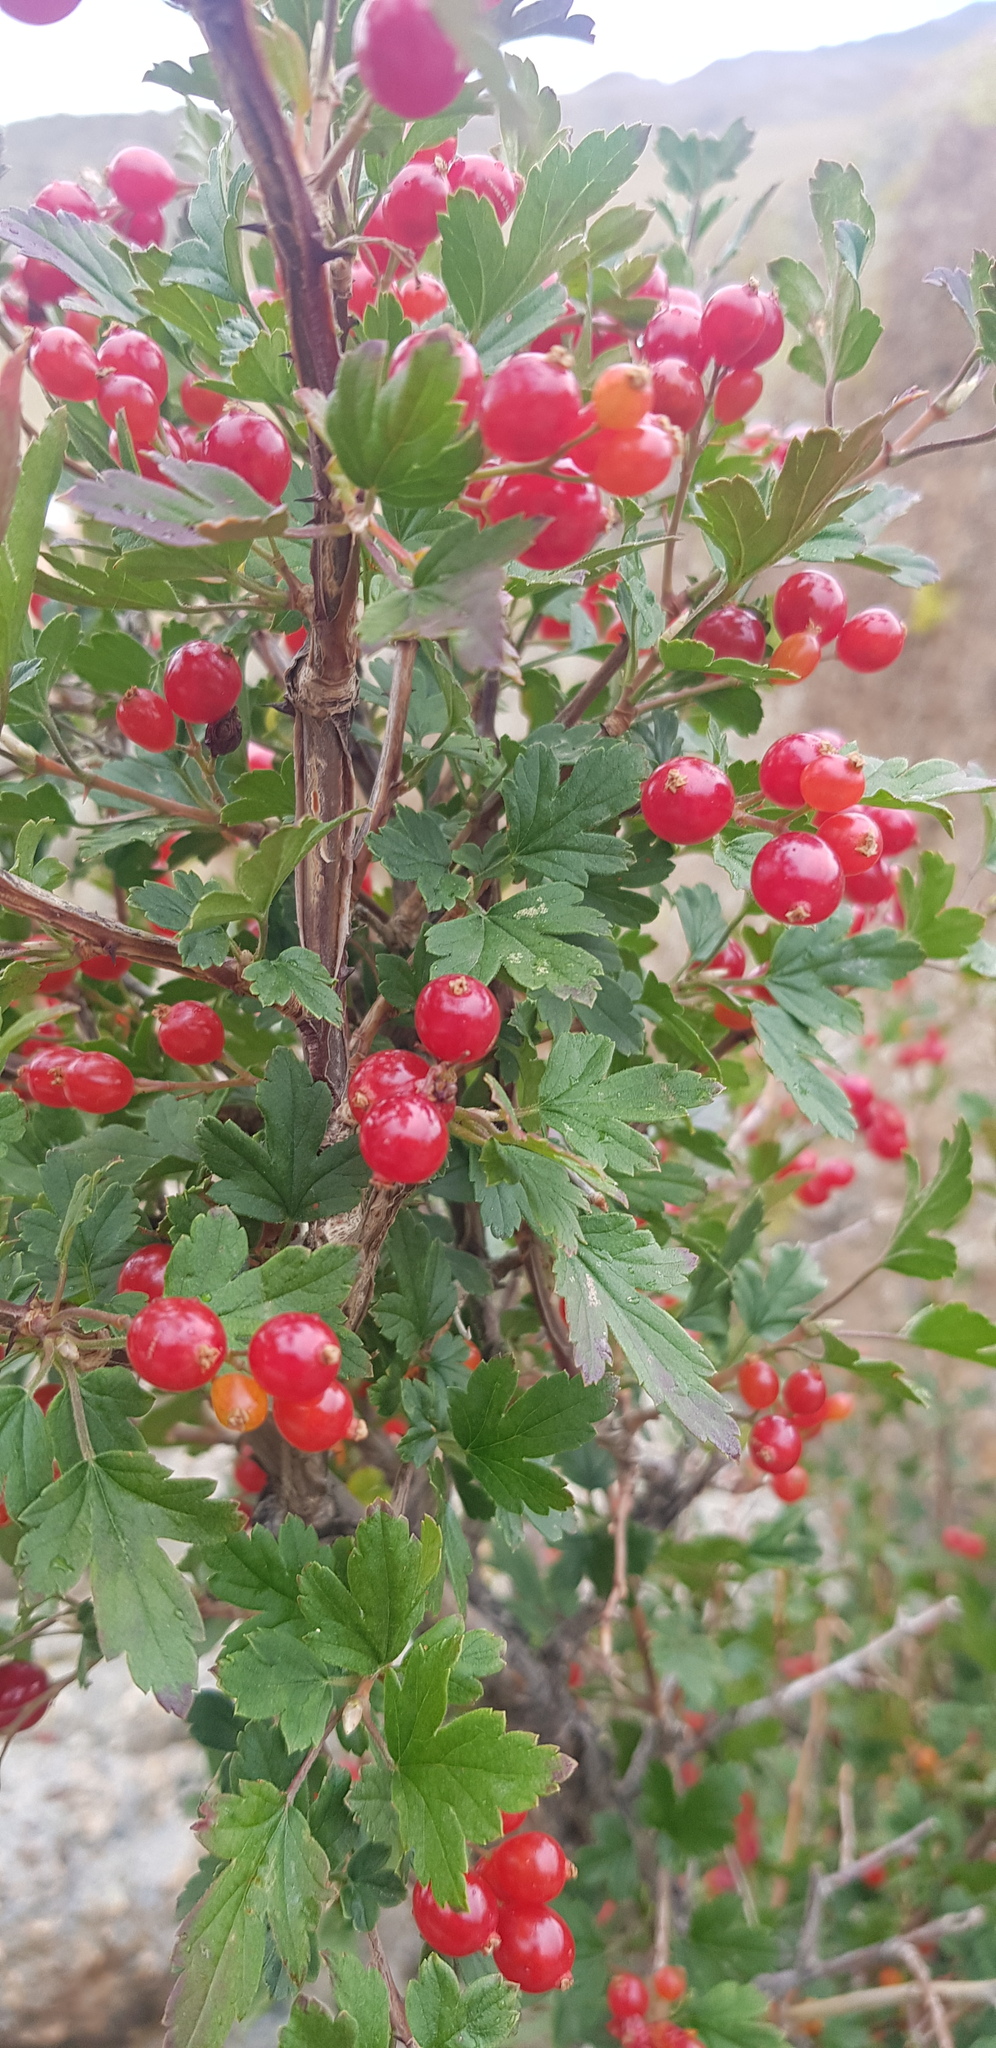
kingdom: Plantae
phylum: Tracheophyta
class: Magnoliopsida
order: Saxifragales
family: Grossulariaceae
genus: Ribes
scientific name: Ribes diacanthum
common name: Siberian currant
